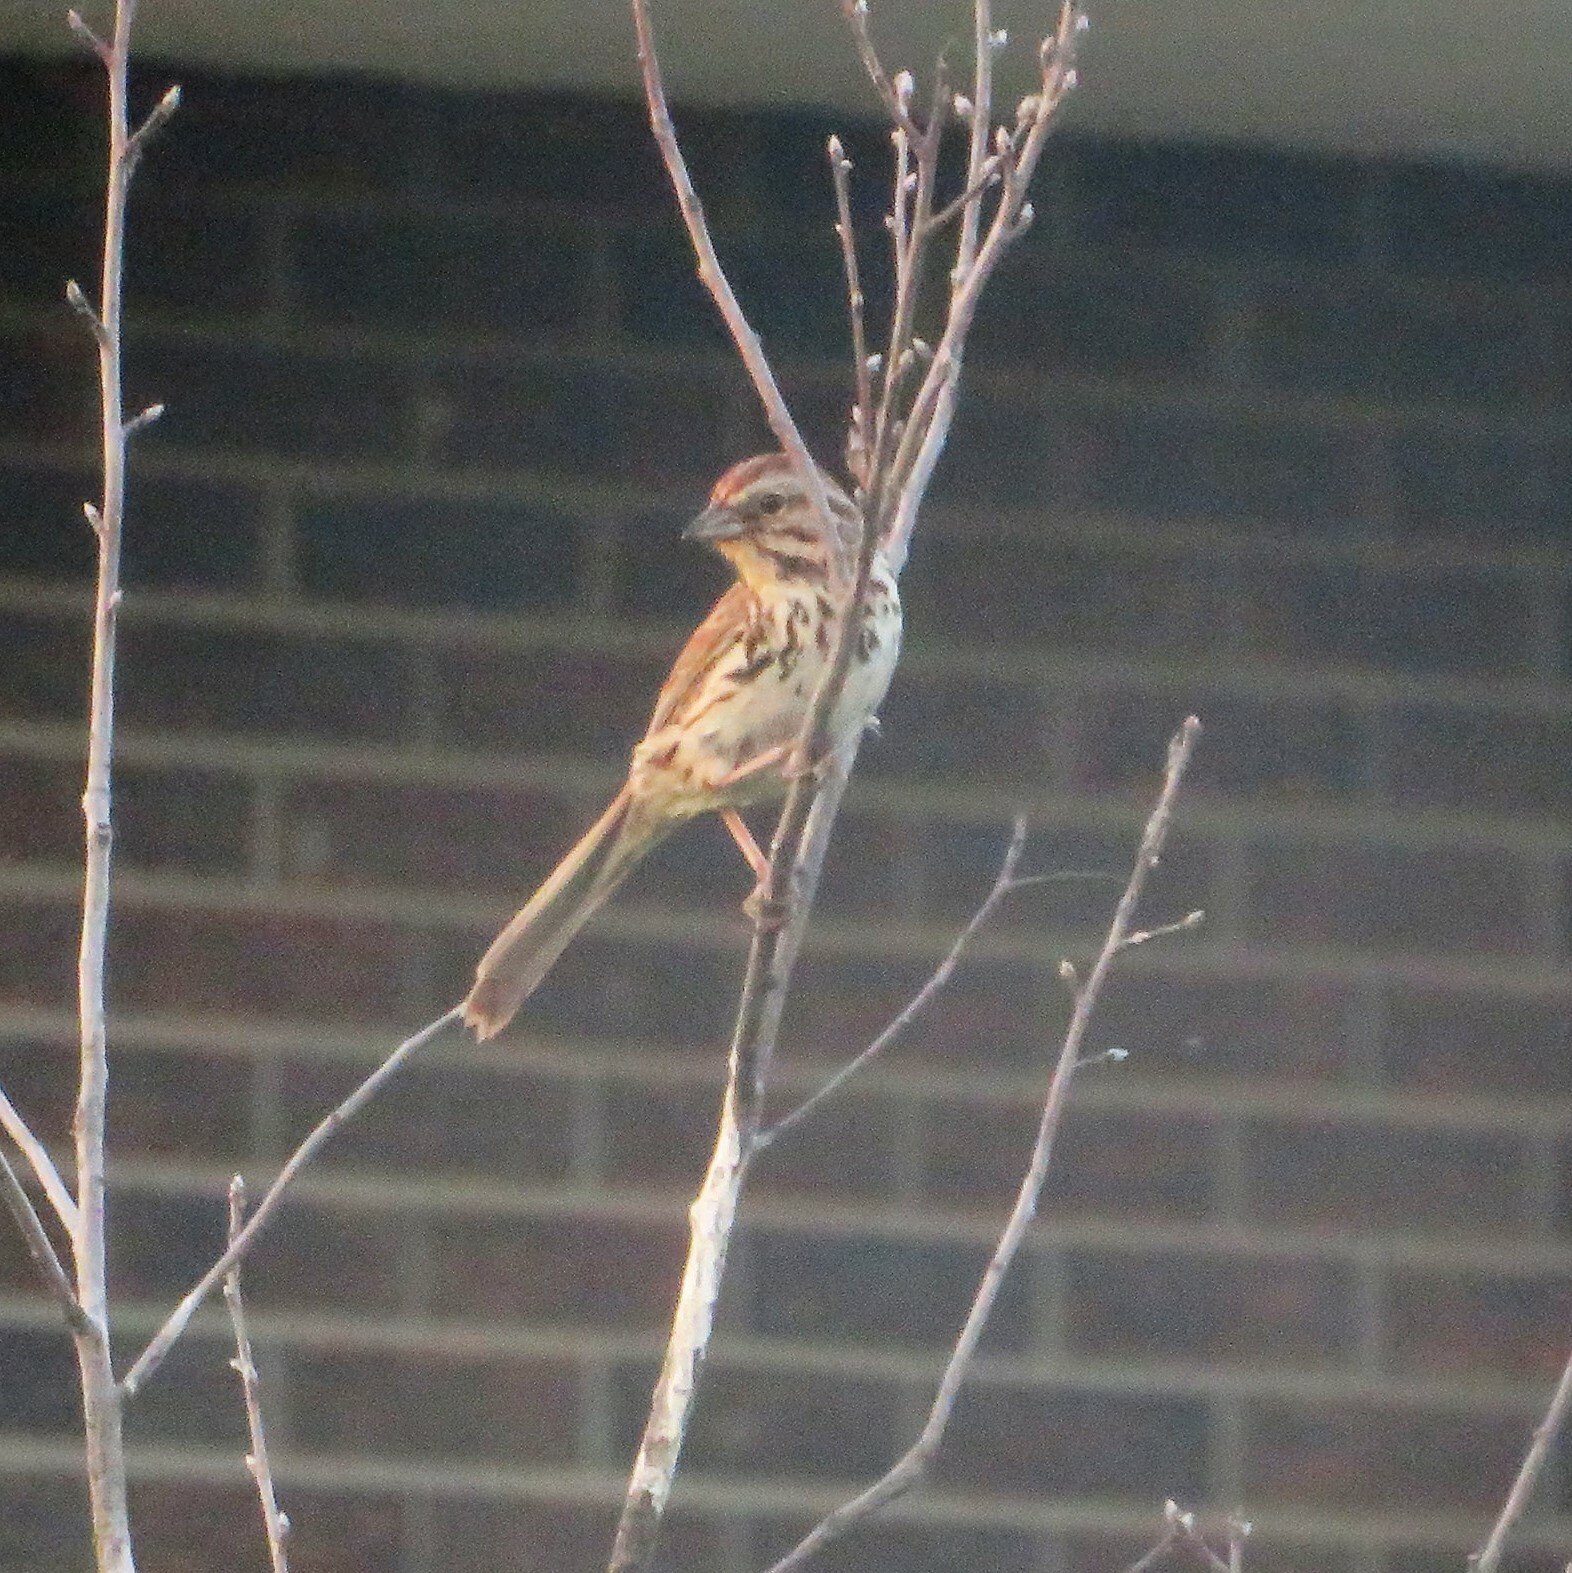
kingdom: Animalia
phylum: Chordata
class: Aves
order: Passeriformes
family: Passerellidae
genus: Melospiza
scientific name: Melospiza melodia
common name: Song sparrow
